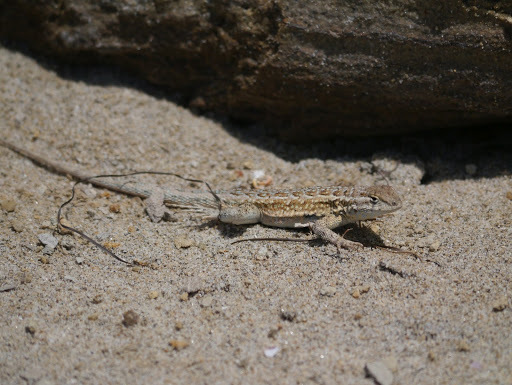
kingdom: Animalia
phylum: Chordata
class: Squamata
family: Phrynosomatidae
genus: Uta
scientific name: Uta stansburiana
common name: Side-blotched lizard
